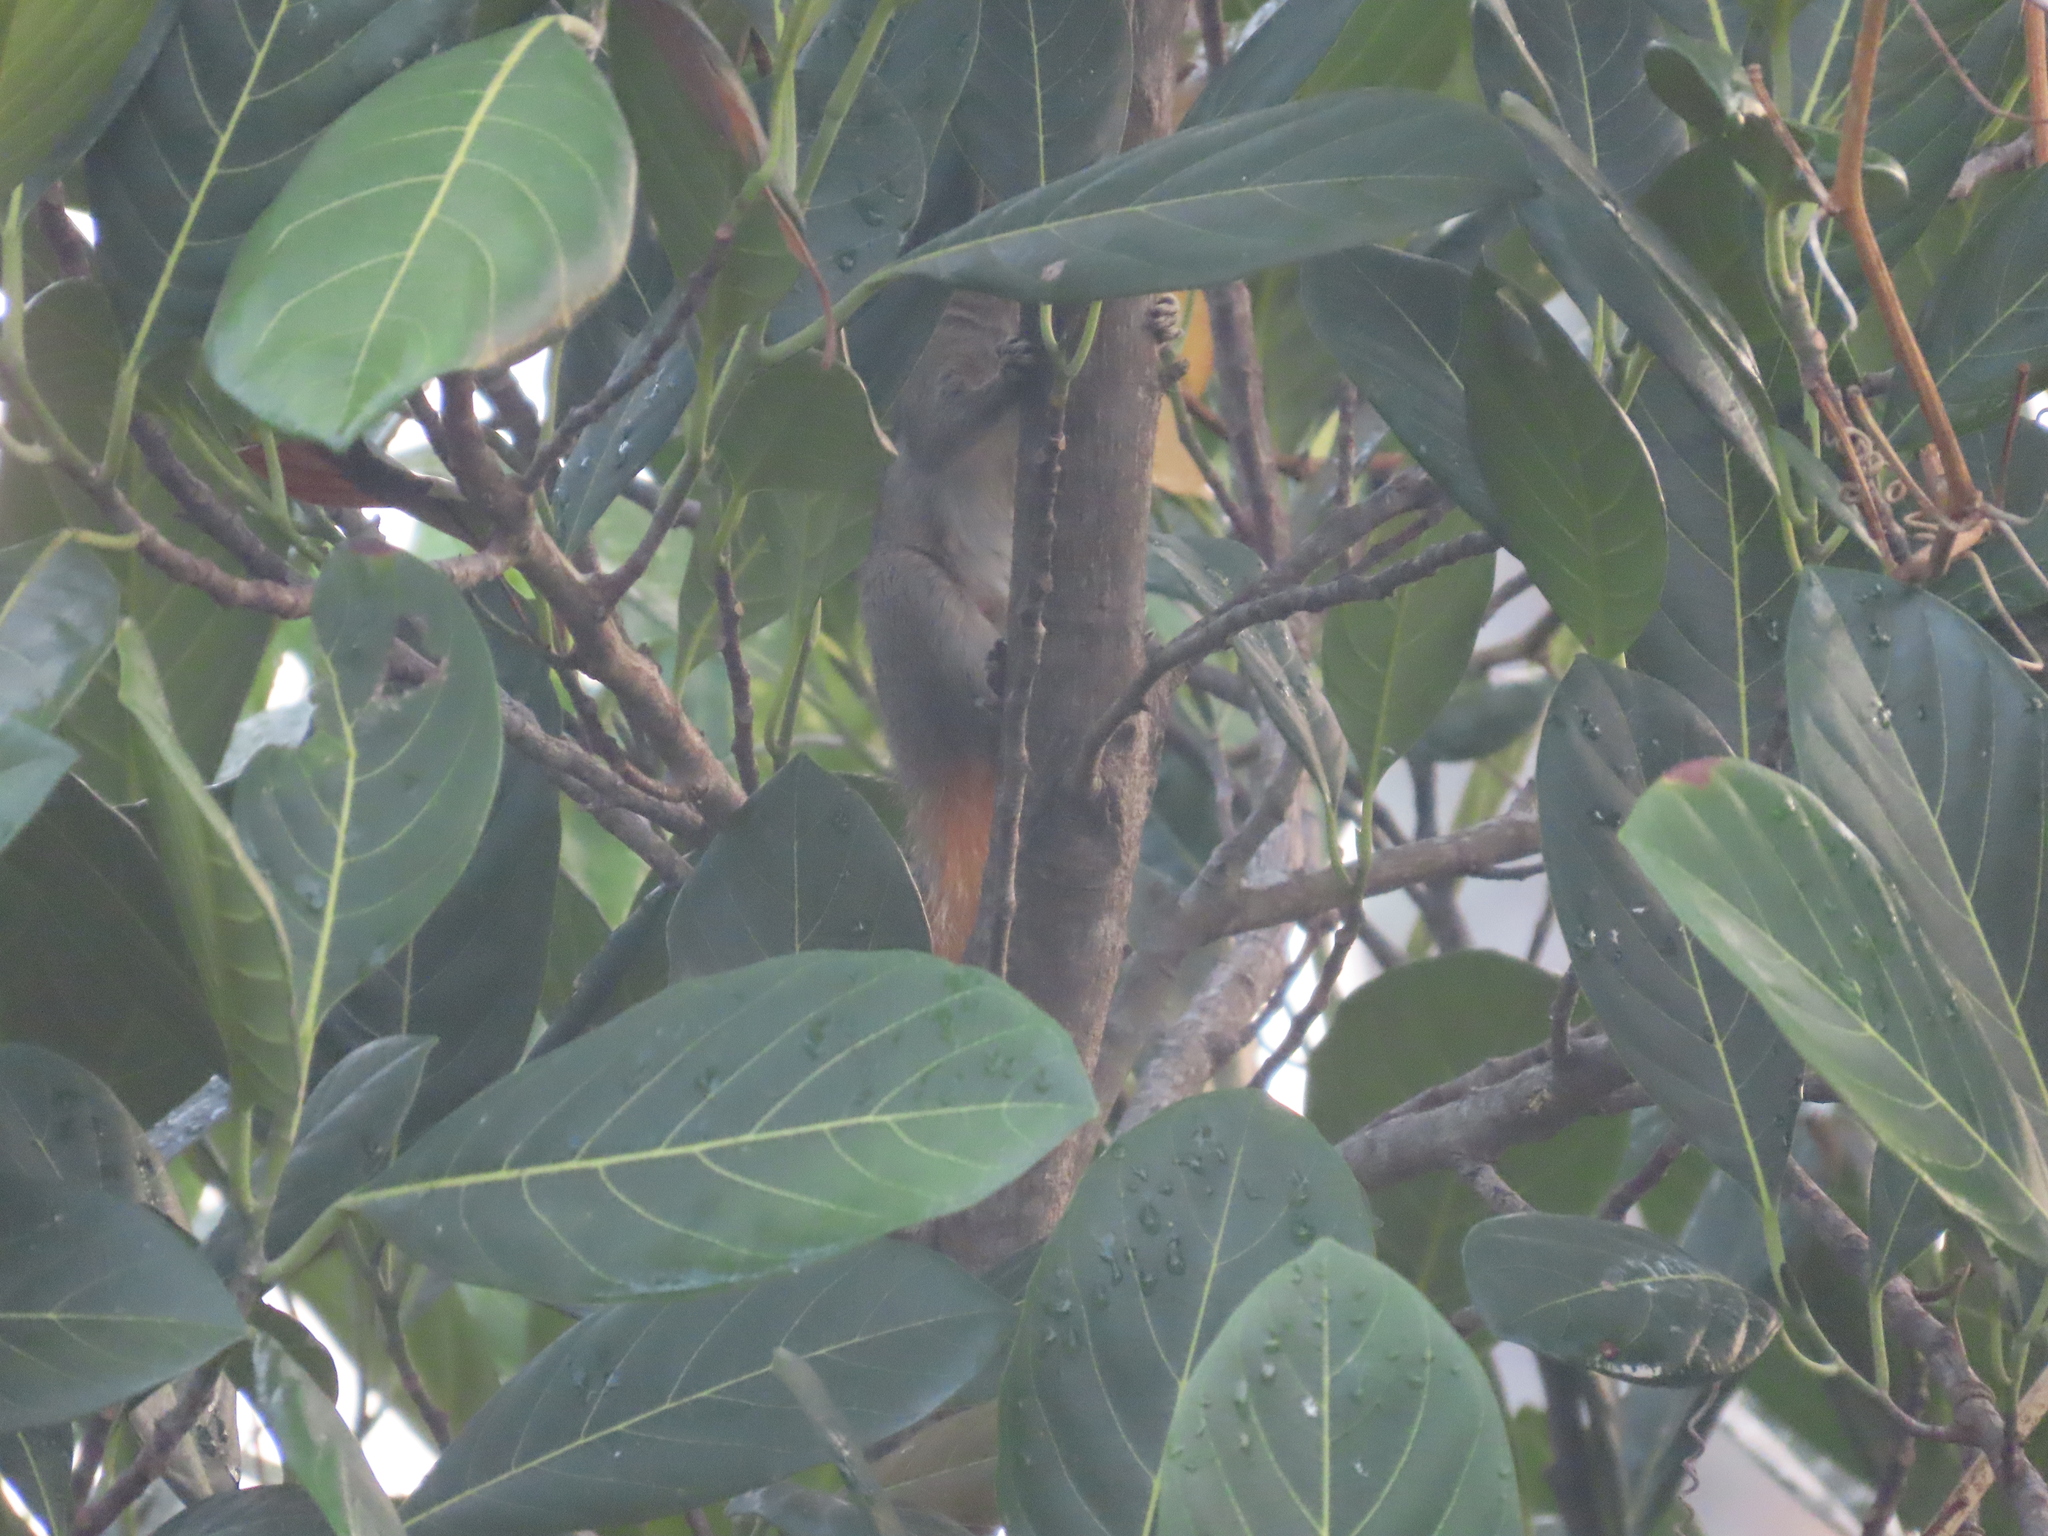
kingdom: Animalia
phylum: Chordata
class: Mammalia
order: Rodentia
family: Sciuridae
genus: Funambulus
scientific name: Funambulus tristriatus
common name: Jungle palm squirrel
